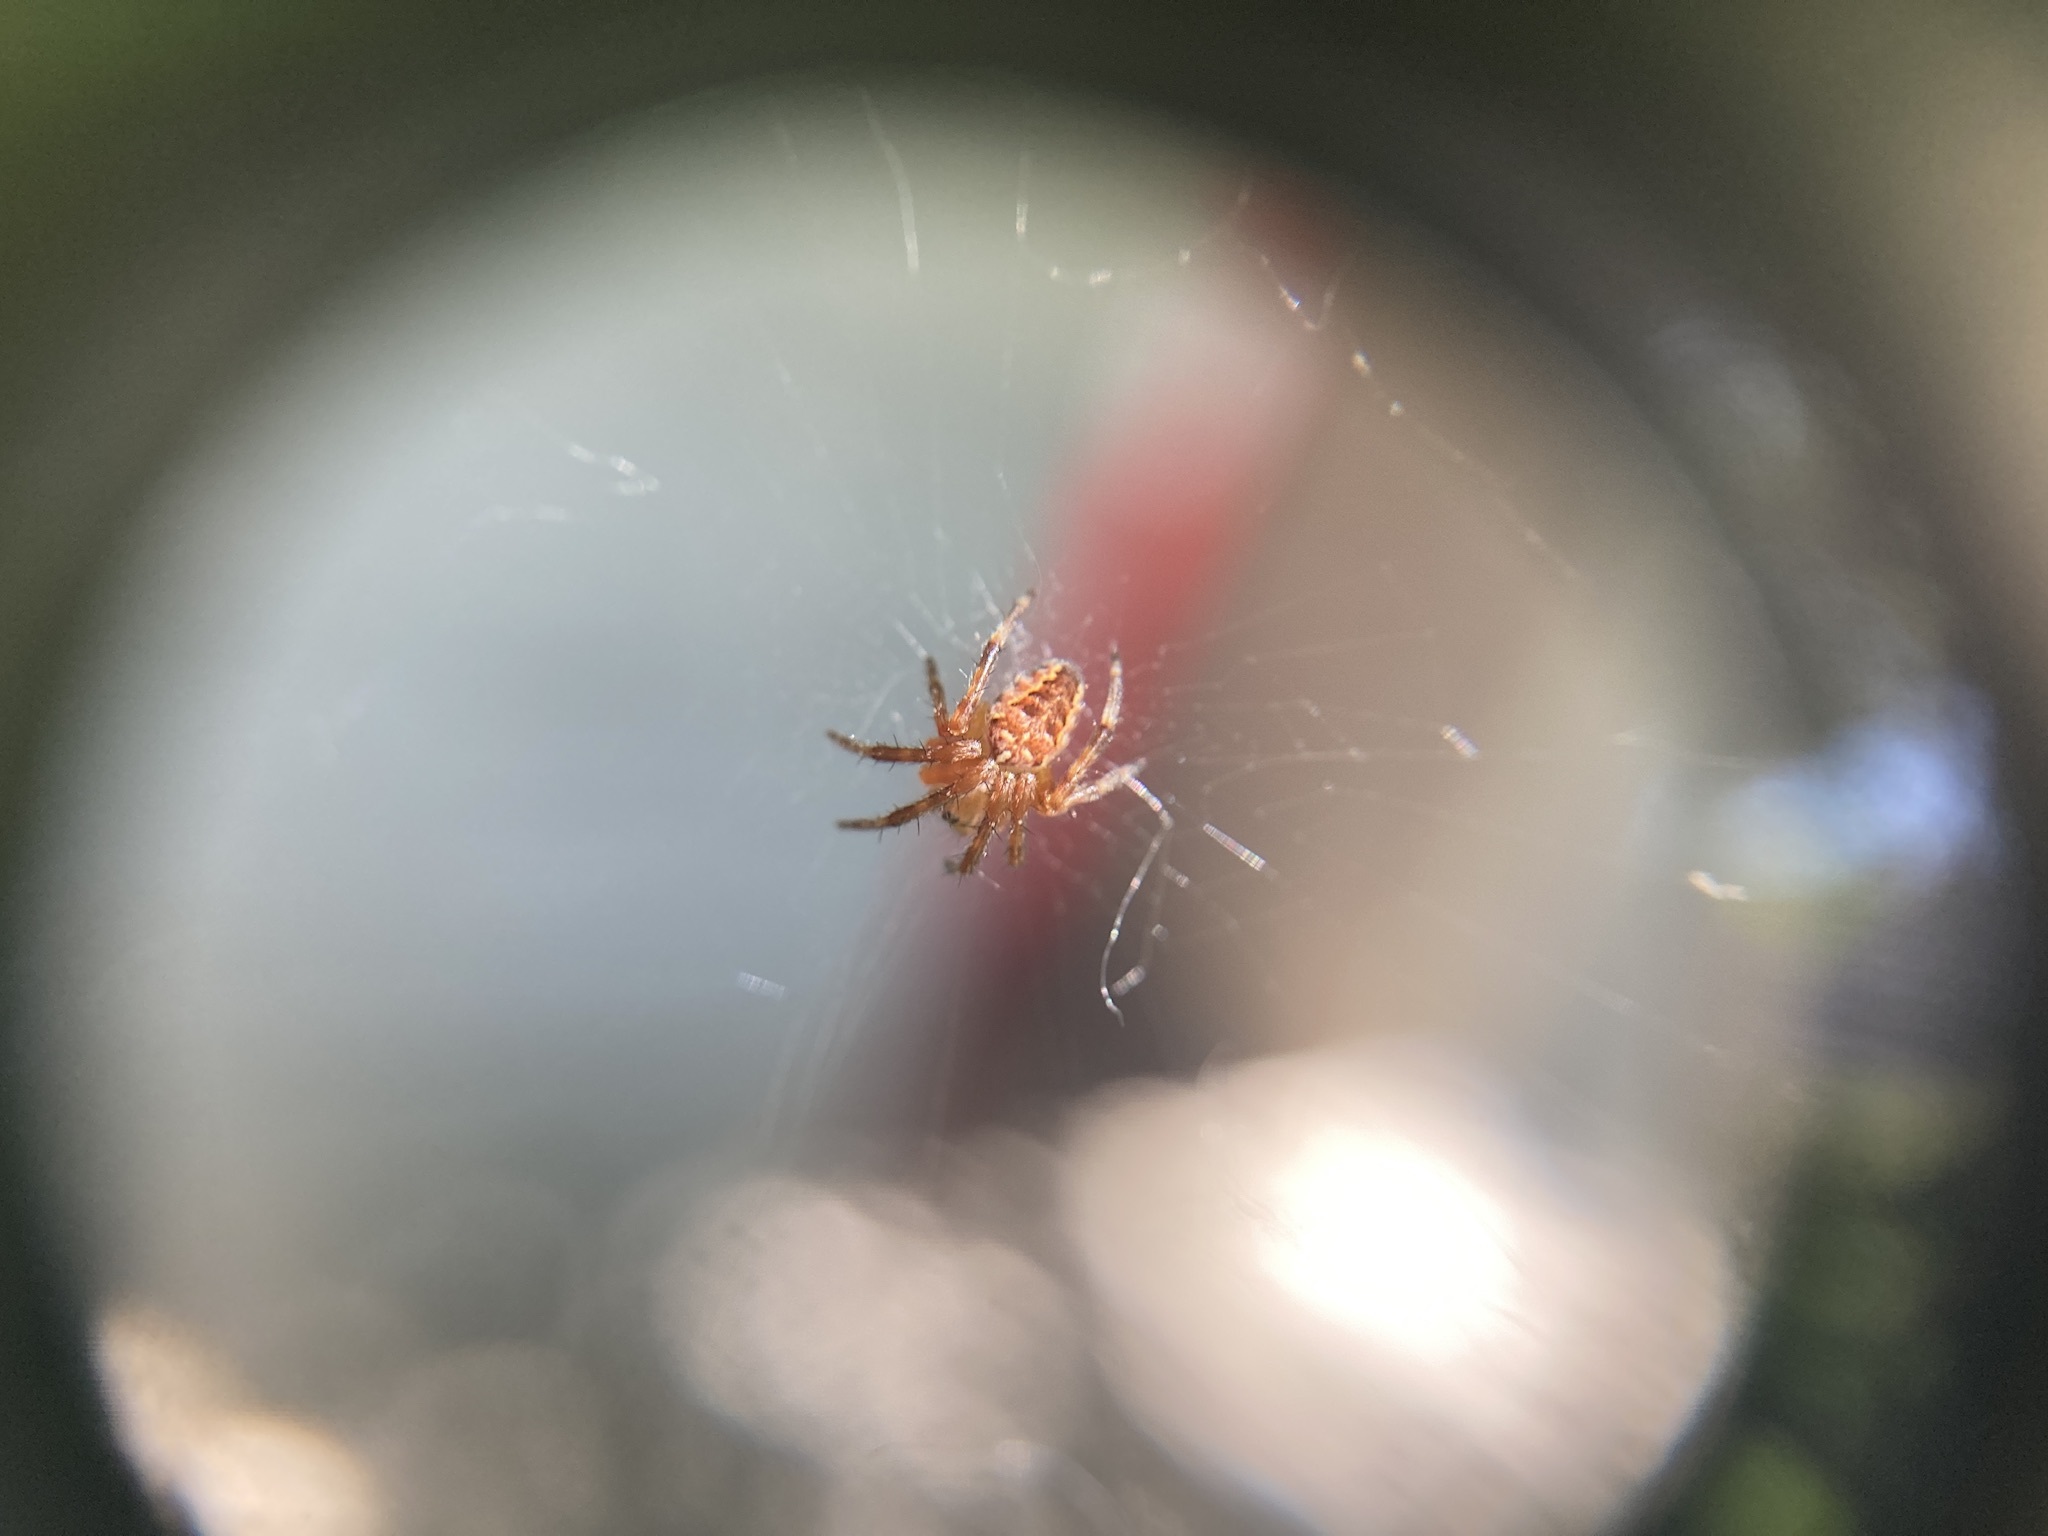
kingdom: Animalia
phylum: Arthropoda
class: Arachnida
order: Araneae
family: Araneidae
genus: Araneus
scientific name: Araneus diadematus
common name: Cross orbweaver
